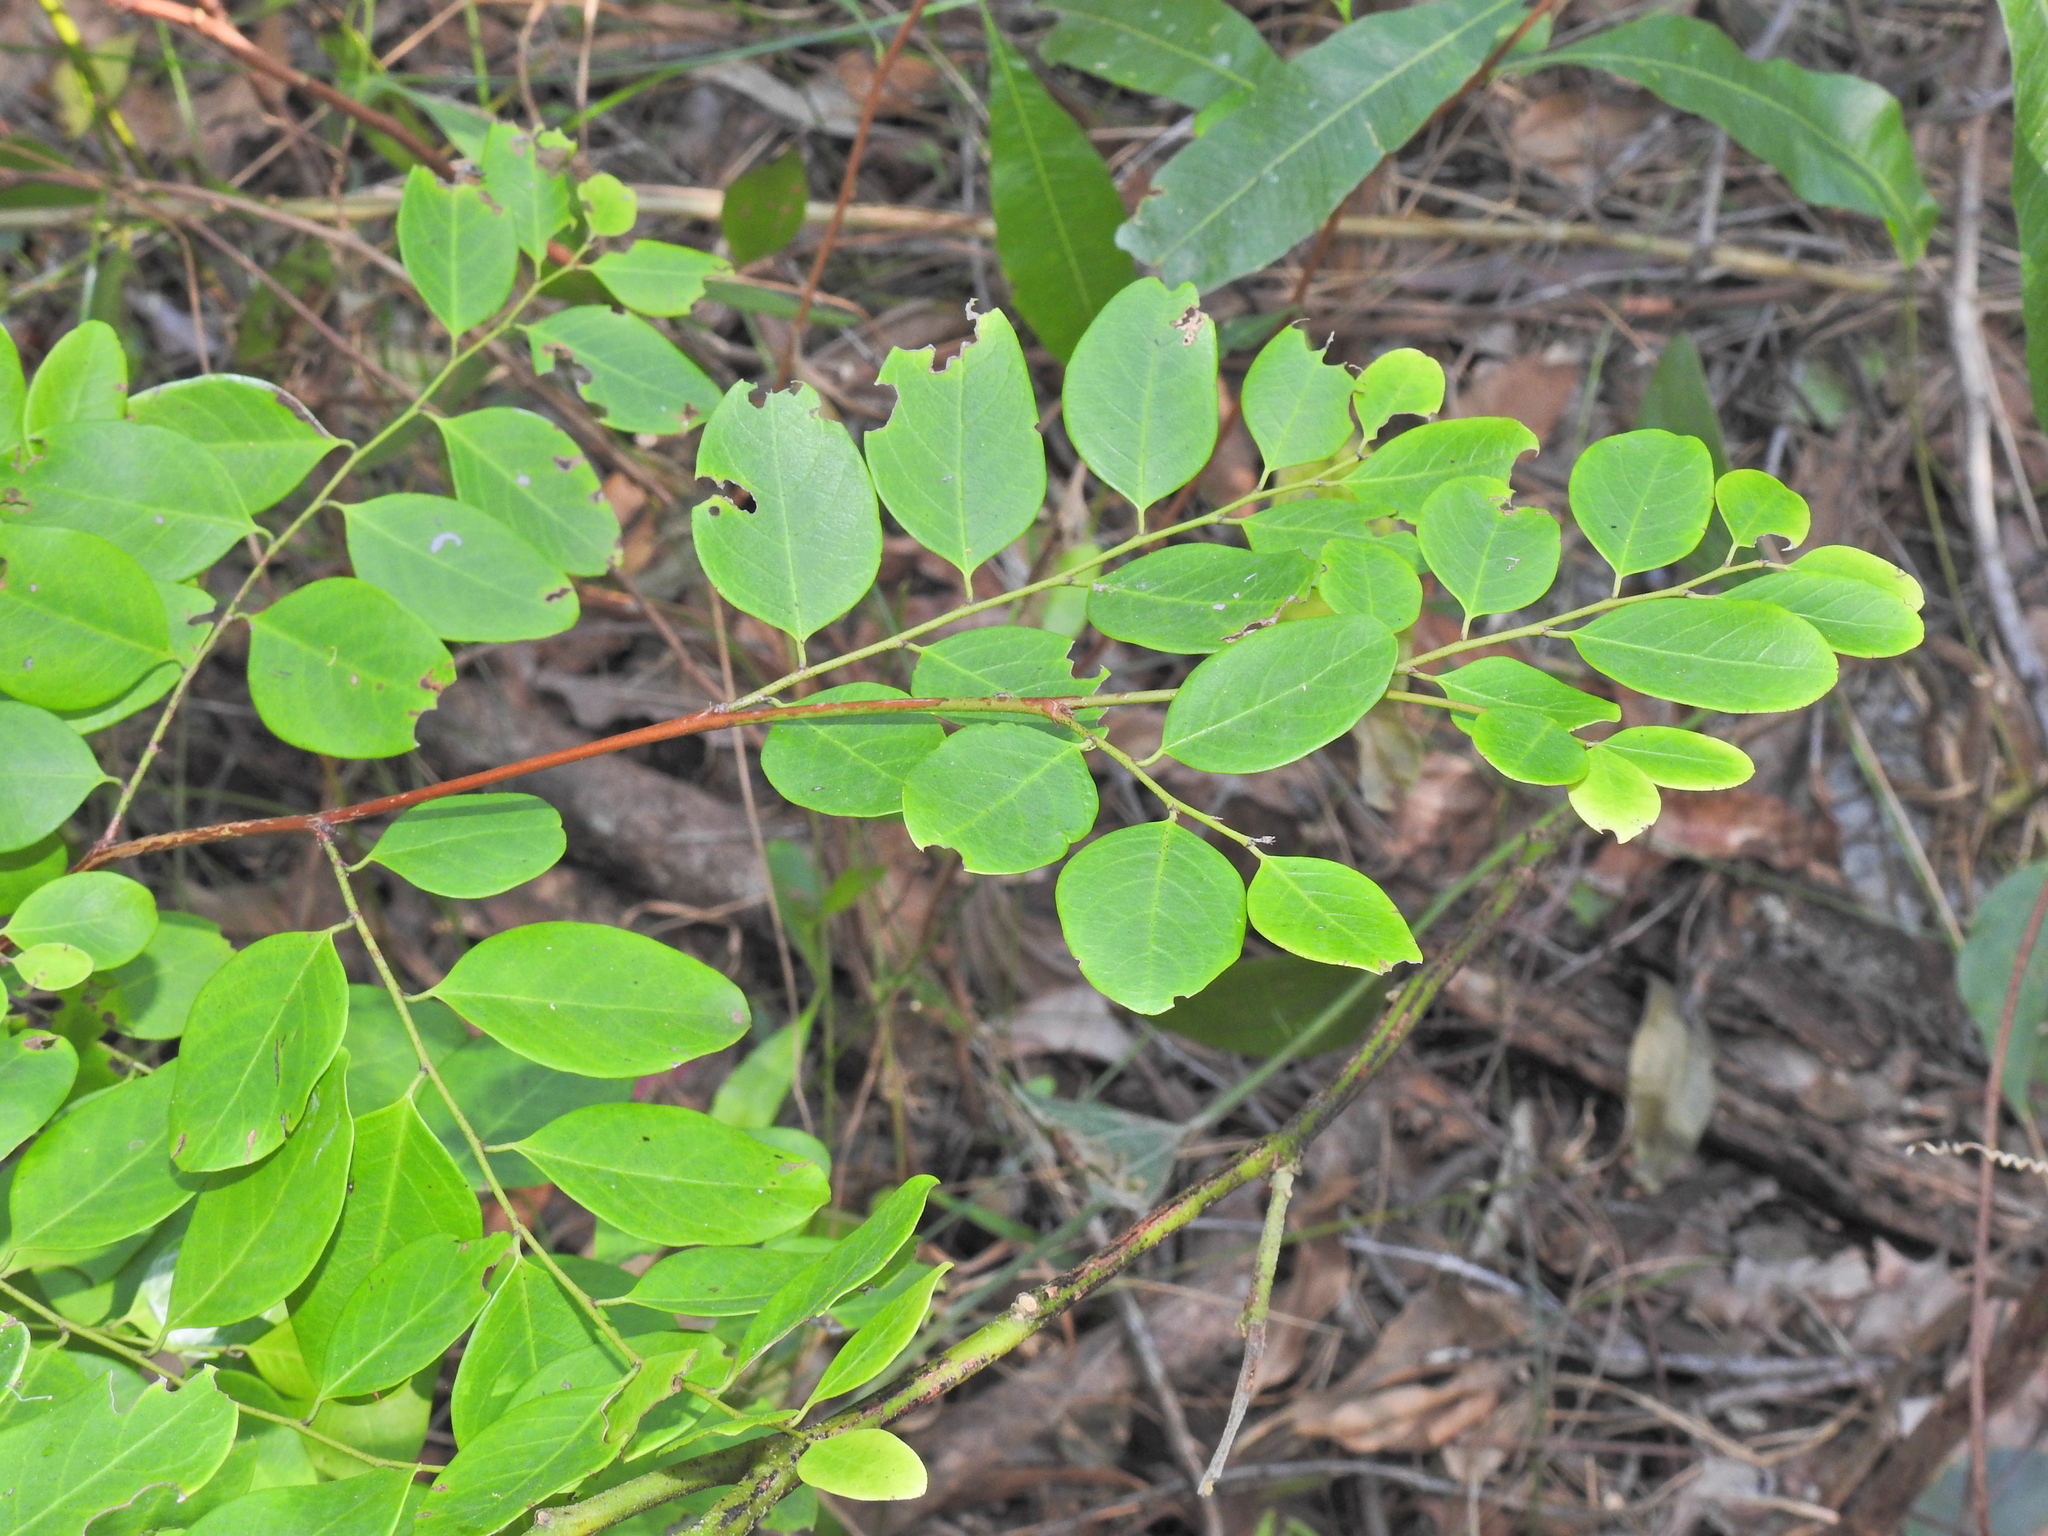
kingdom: Plantae
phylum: Tracheophyta
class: Magnoliopsida
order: Malpighiales
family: Phyllanthaceae
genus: Breynia
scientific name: Breynia oblongifolia
